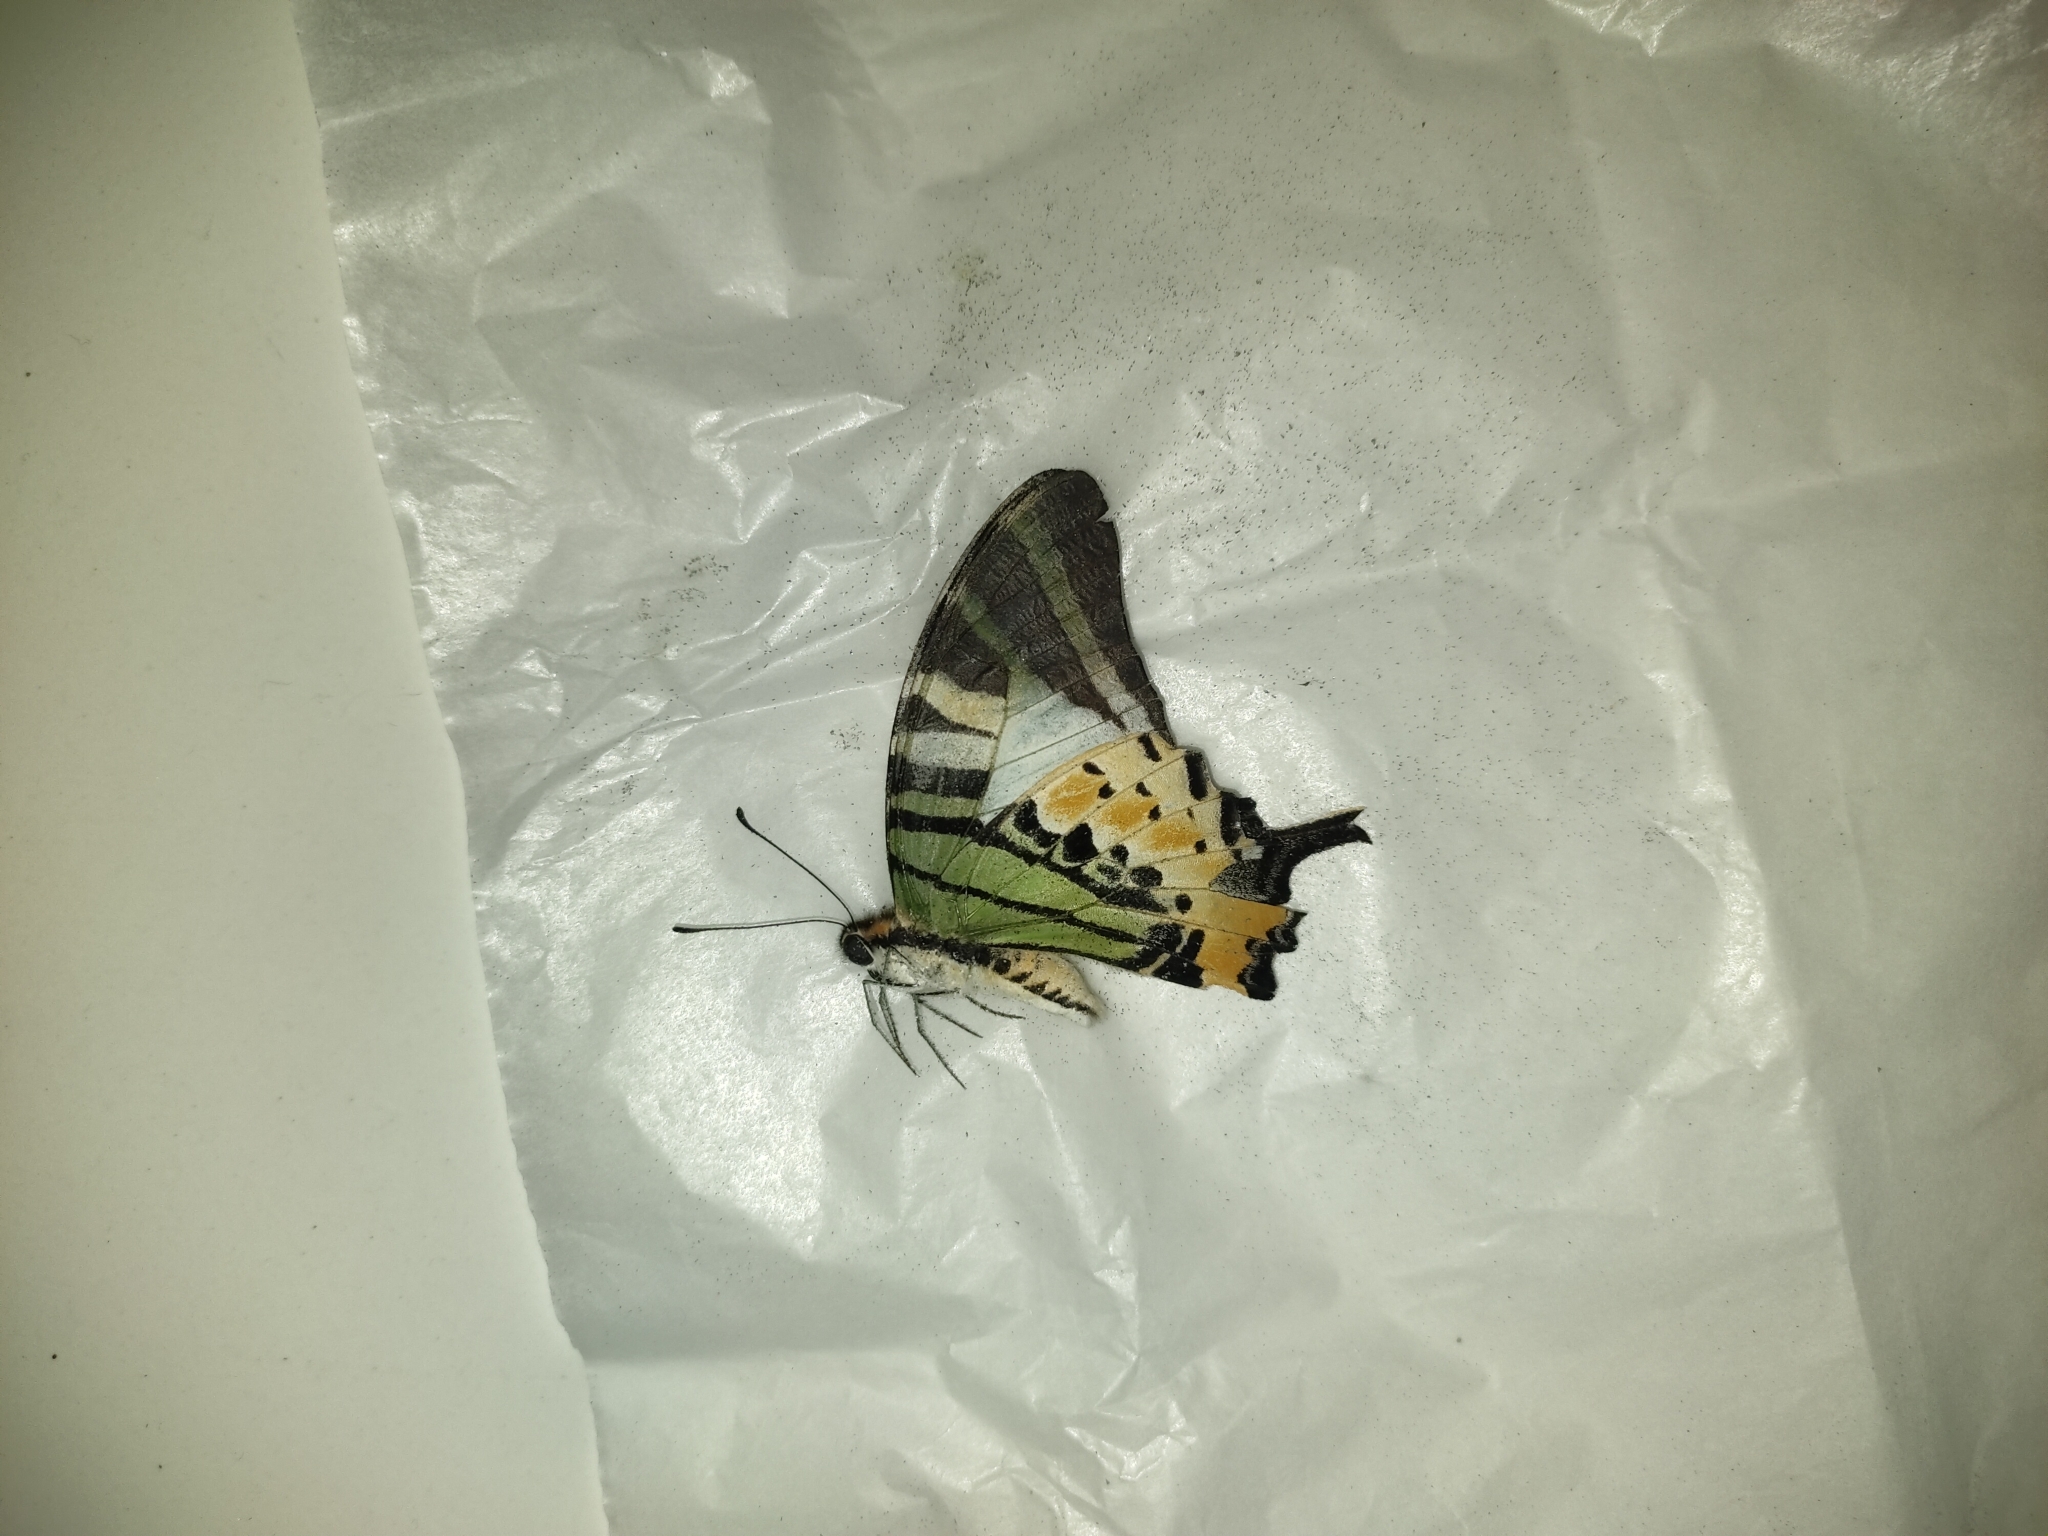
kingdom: Animalia
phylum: Arthropoda
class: Insecta
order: Lepidoptera
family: Papilionidae
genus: Graphium
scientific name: Graphium antiphates
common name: Fivebar swordtail
